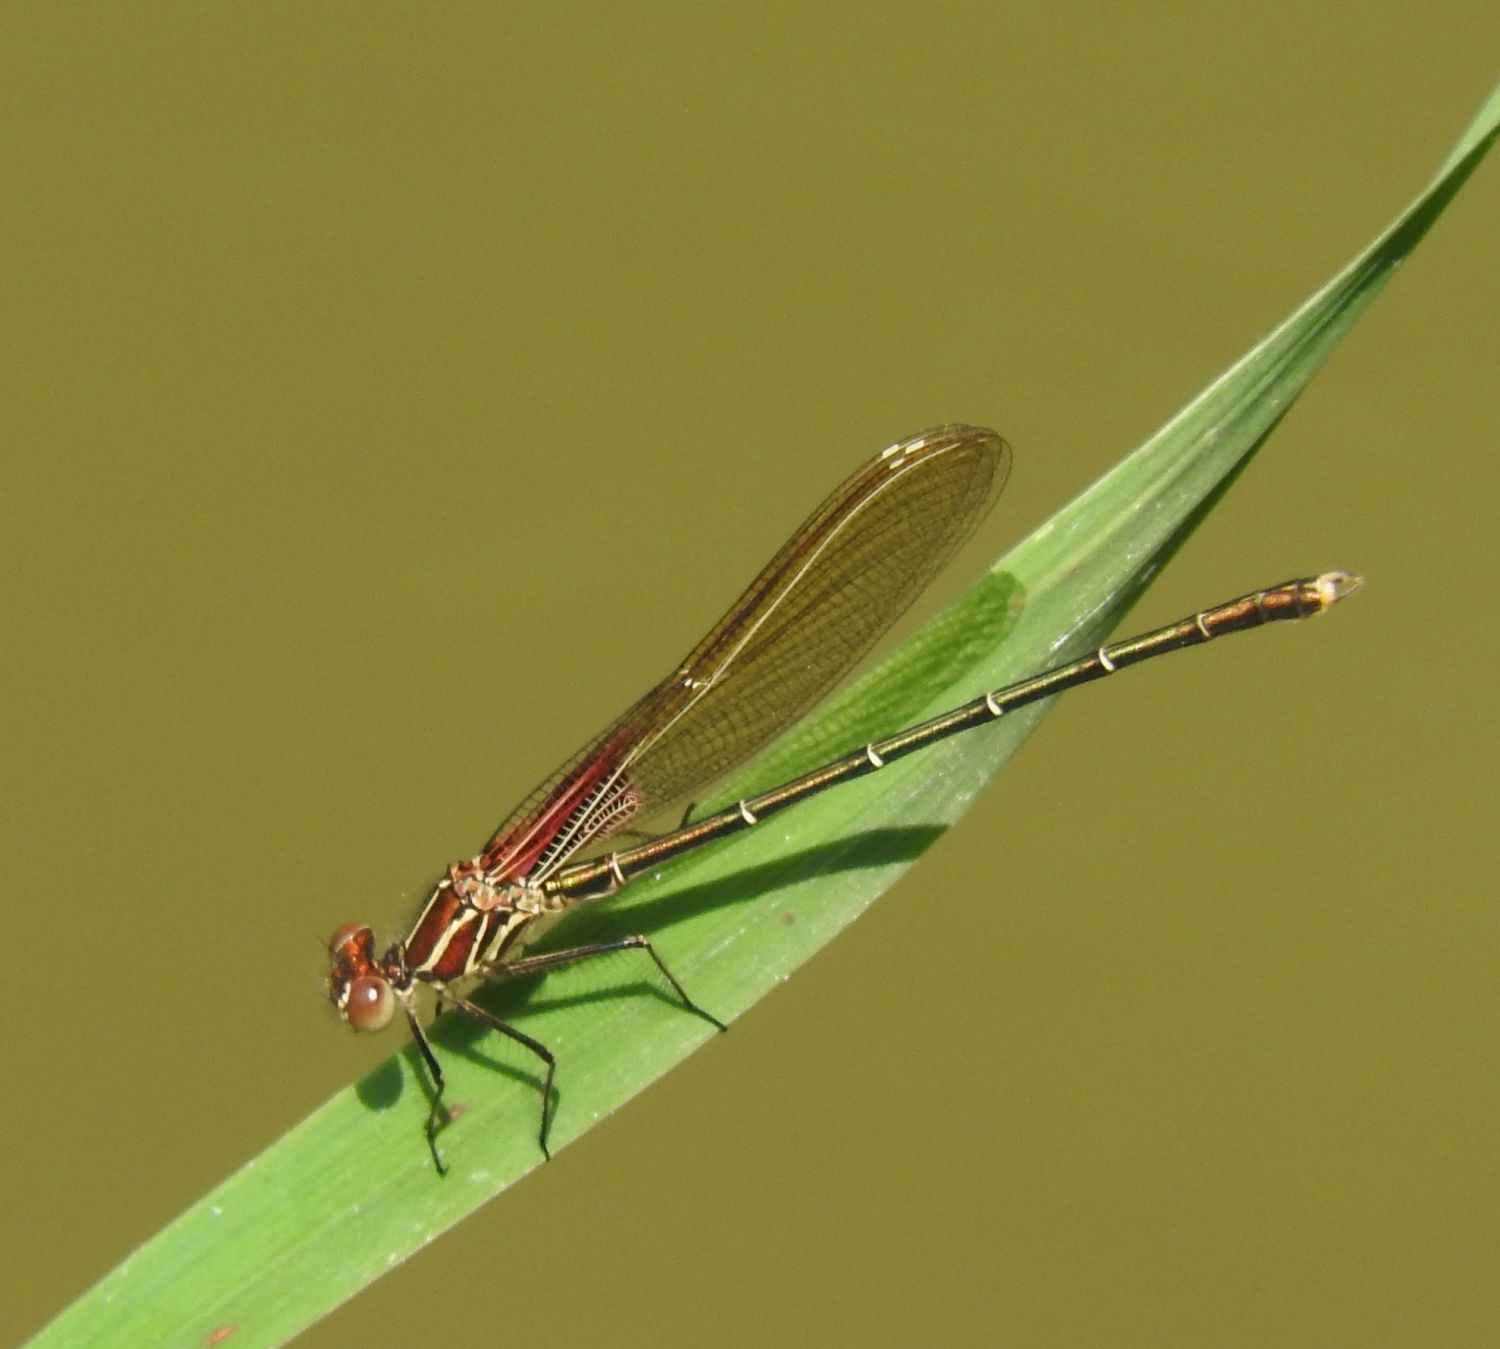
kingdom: Animalia
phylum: Arthropoda
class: Insecta
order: Odonata
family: Calopterygidae
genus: Hetaerina
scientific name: Hetaerina americana
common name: American rubyspot
